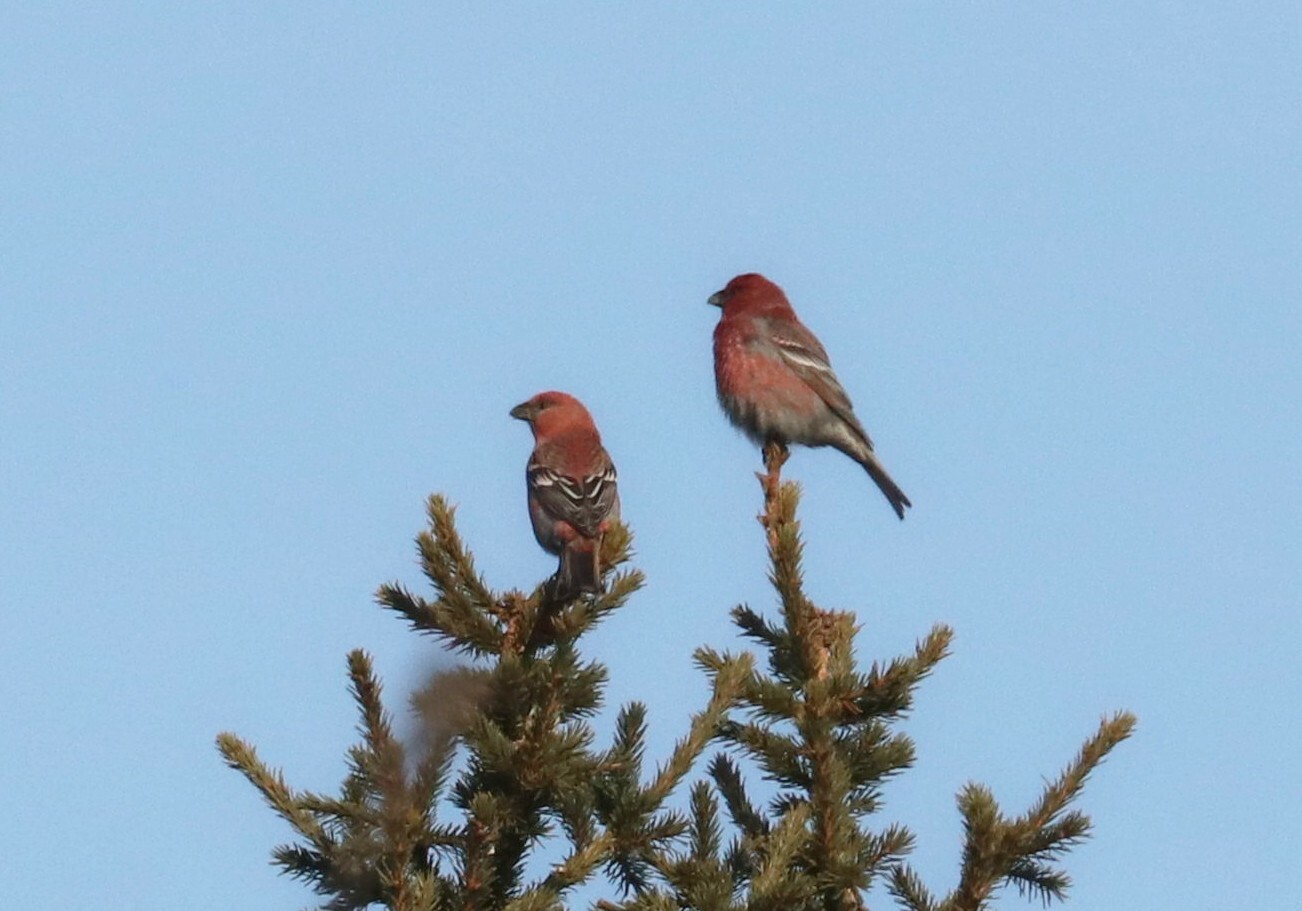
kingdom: Animalia
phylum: Chordata
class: Aves
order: Passeriformes
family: Fringillidae
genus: Pinicola
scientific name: Pinicola enucleator
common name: Pine grosbeak
